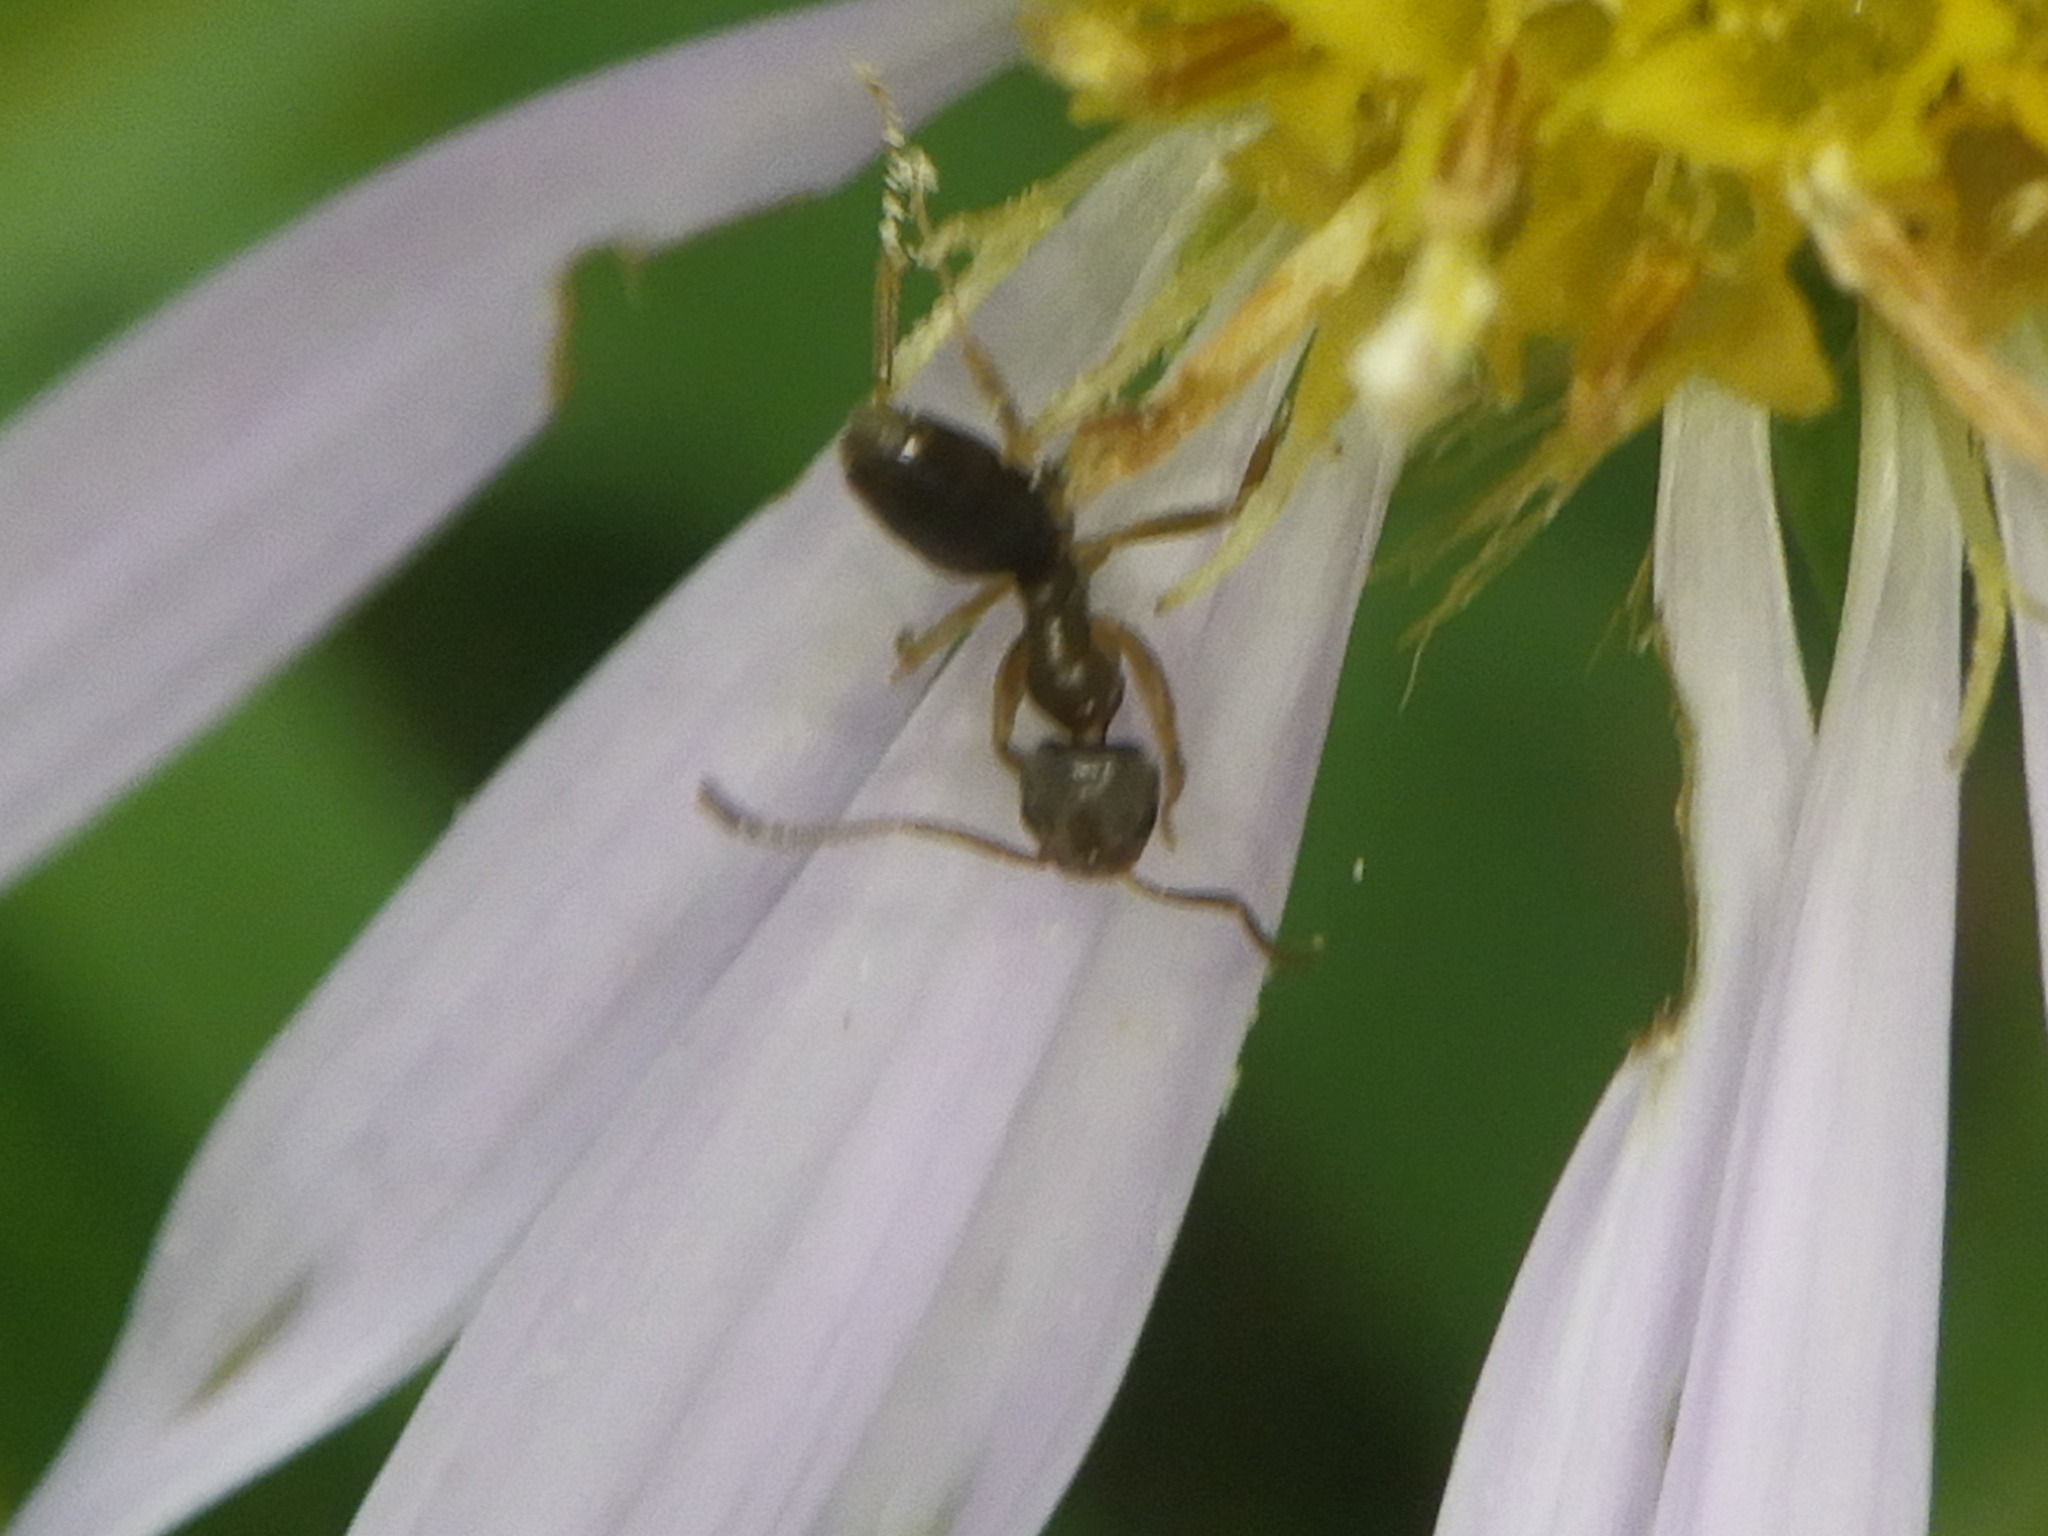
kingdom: Animalia
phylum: Arthropoda
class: Insecta
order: Hymenoptera
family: Formicidae
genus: Tapinoma
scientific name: Tapinoma sessile
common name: Odorous house ant
